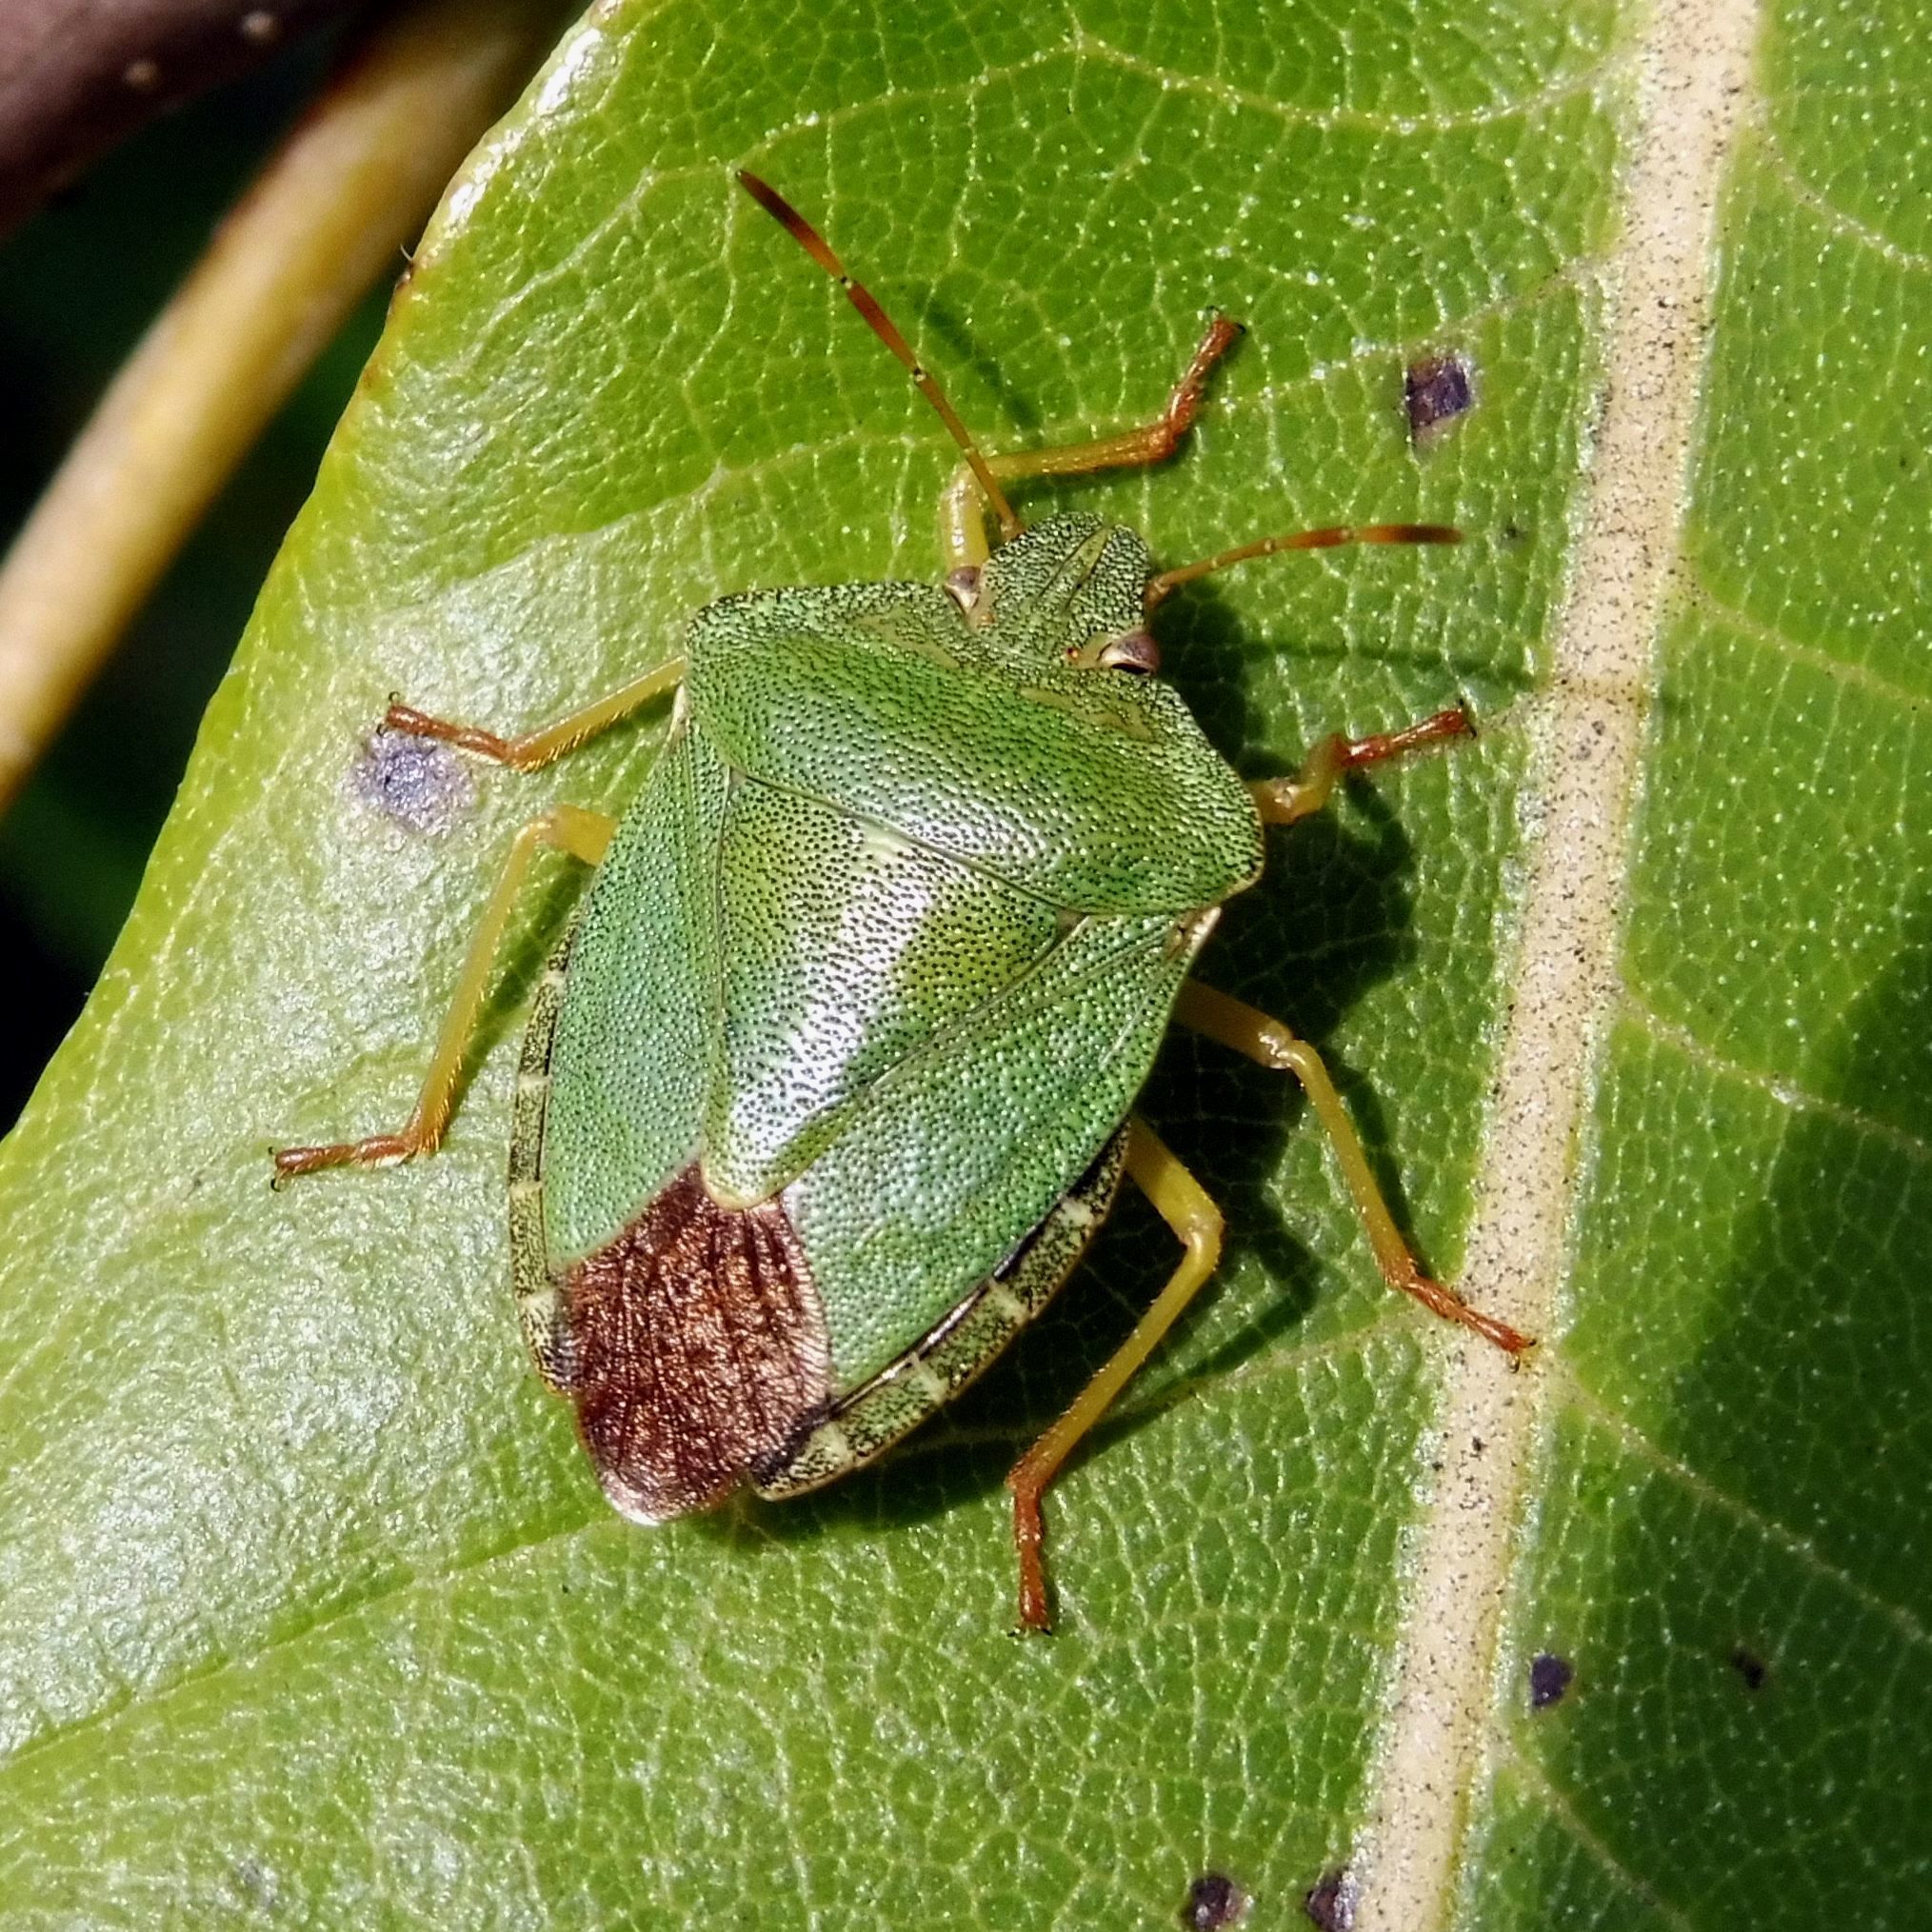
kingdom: Animalia
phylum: Arthropoda
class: Insecta
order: Hemiptera
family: Pentatomidae
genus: Palomena
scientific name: Palomena prasina
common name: Green shieldbug
